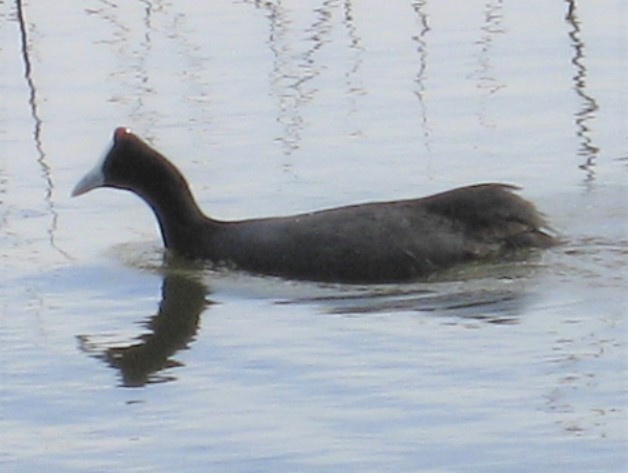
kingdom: Animalia
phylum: Chordata
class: Aves
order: Gruiformes
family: Rallidae
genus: Fulica
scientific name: Fulica cristata
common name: Red-knobbed coot
